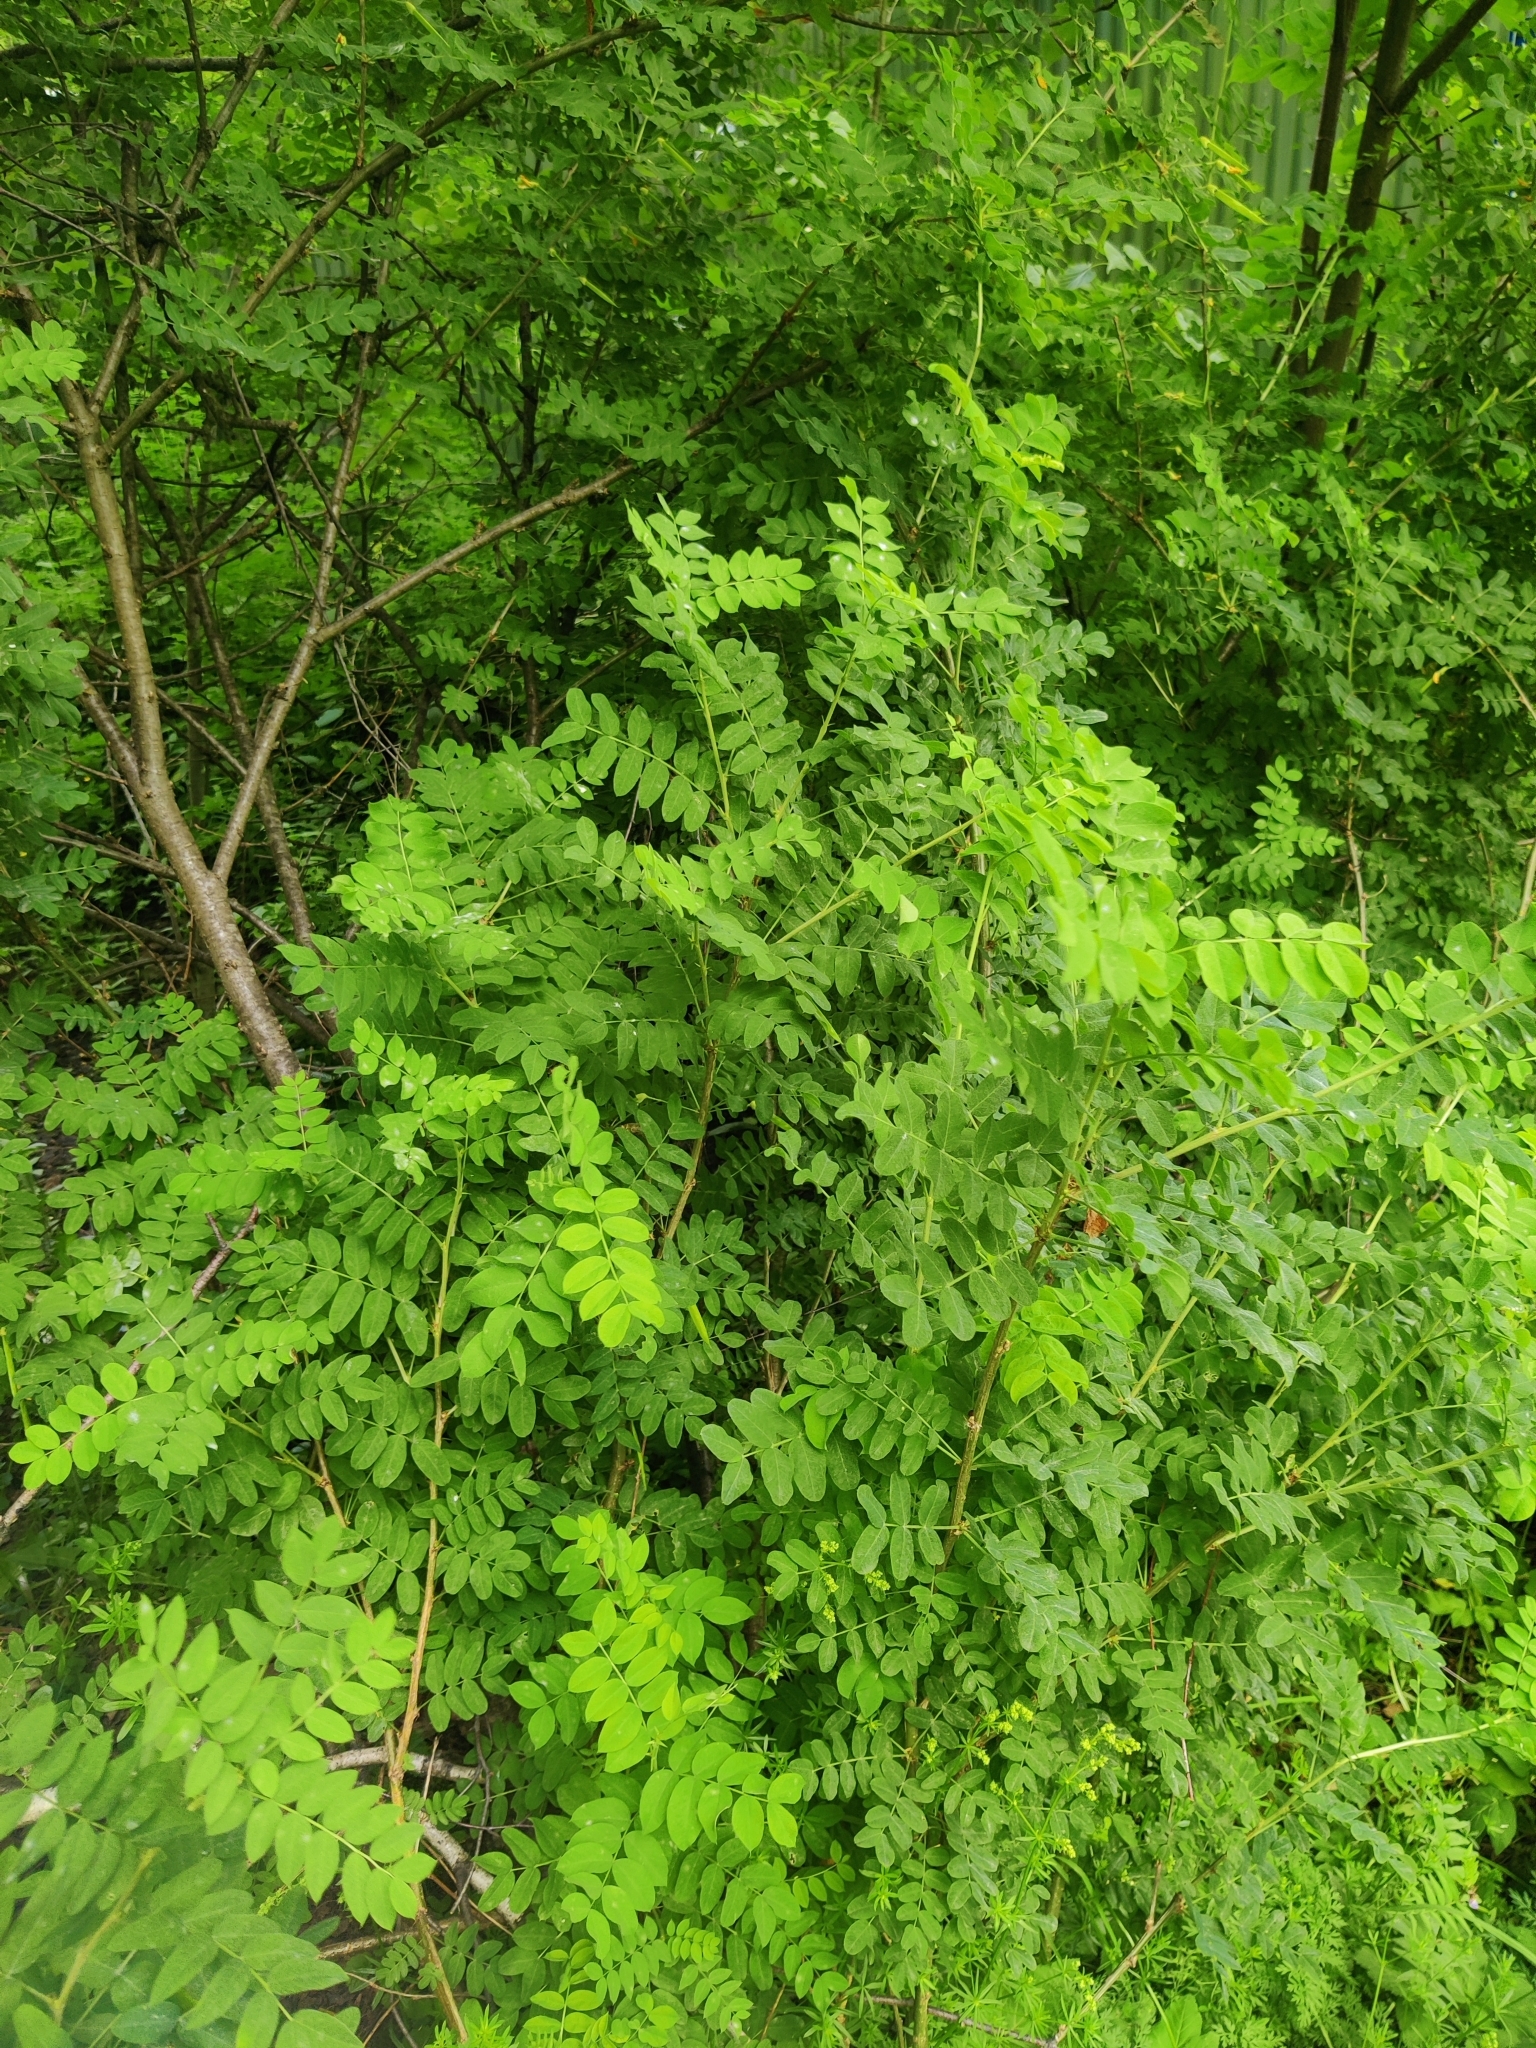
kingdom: Plantae
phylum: Tracheophyta
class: Magnoliopsida
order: Fabales
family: Fabaceae
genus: Caragana
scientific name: Caragana arborescens
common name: Siberian peashrub
